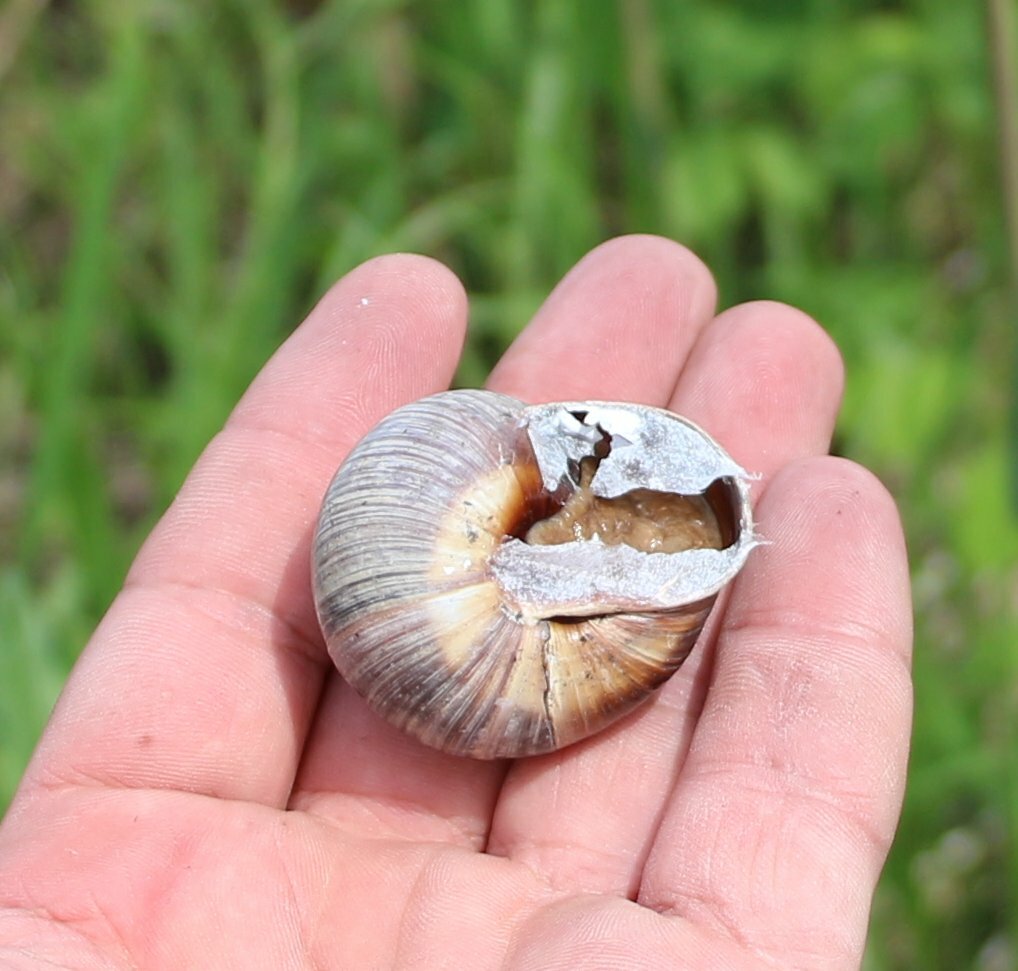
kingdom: Animalia
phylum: Mollusca
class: Gastropoda
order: Stylommatophora
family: Helicidae
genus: Helix
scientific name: Helix lucorum
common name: Turkish snail
